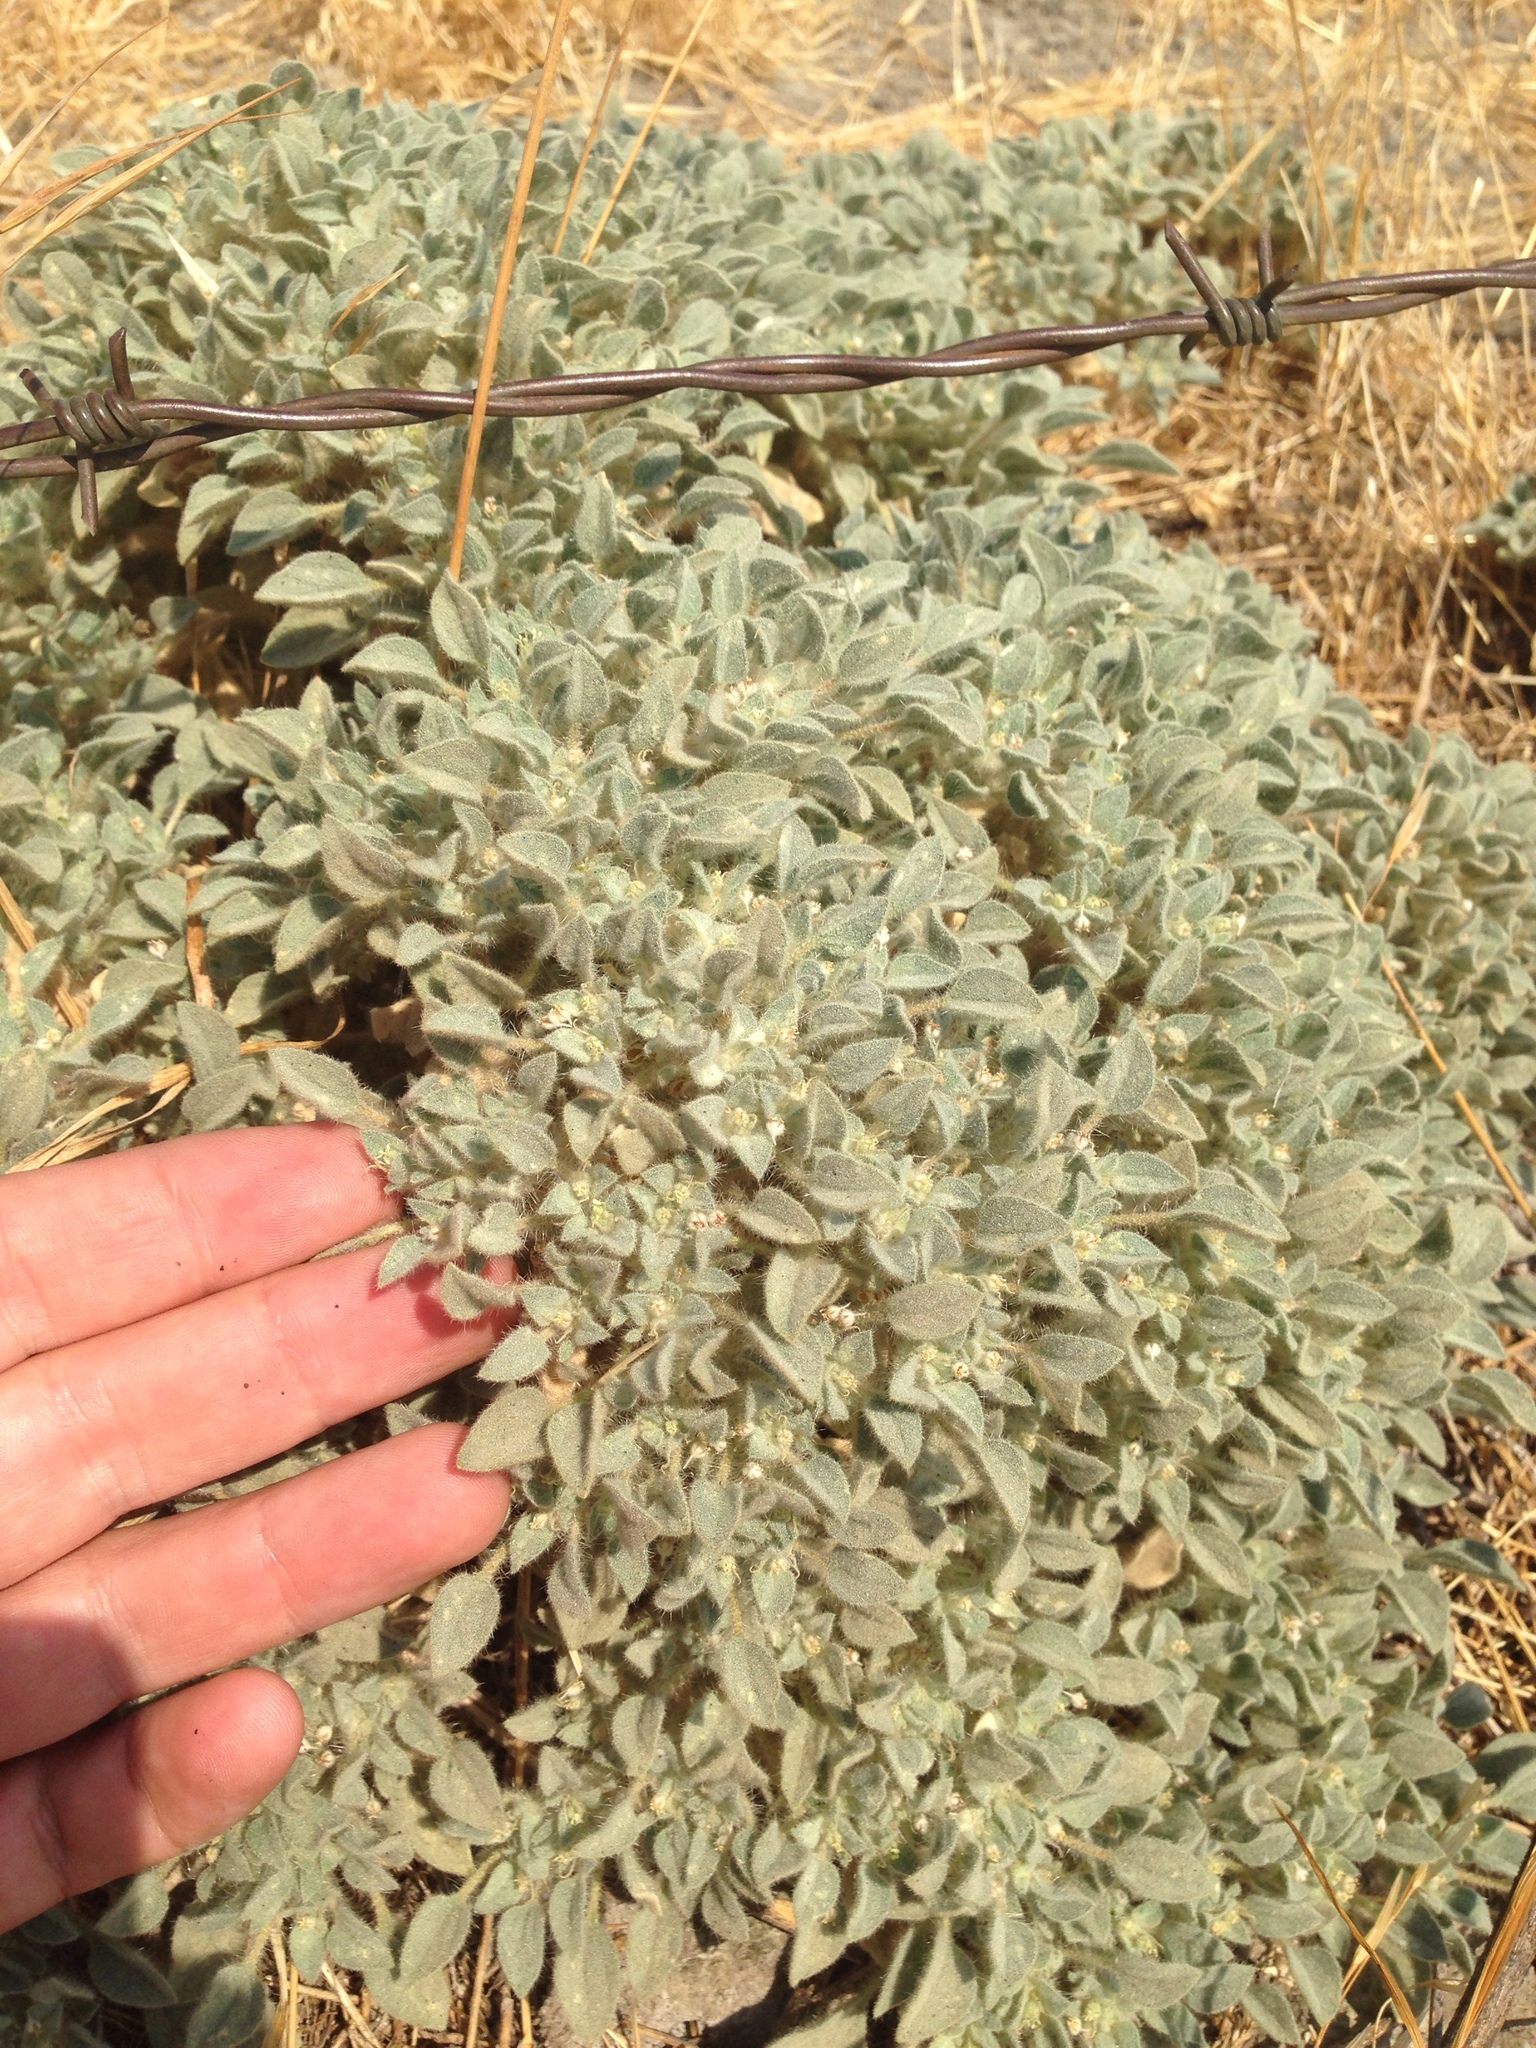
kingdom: Plantae
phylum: Tracheophyta
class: Magnoliopsida
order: Malpighiales
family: Euphorbiaceae
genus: Croton
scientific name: Croton setiger
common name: Dove weed
